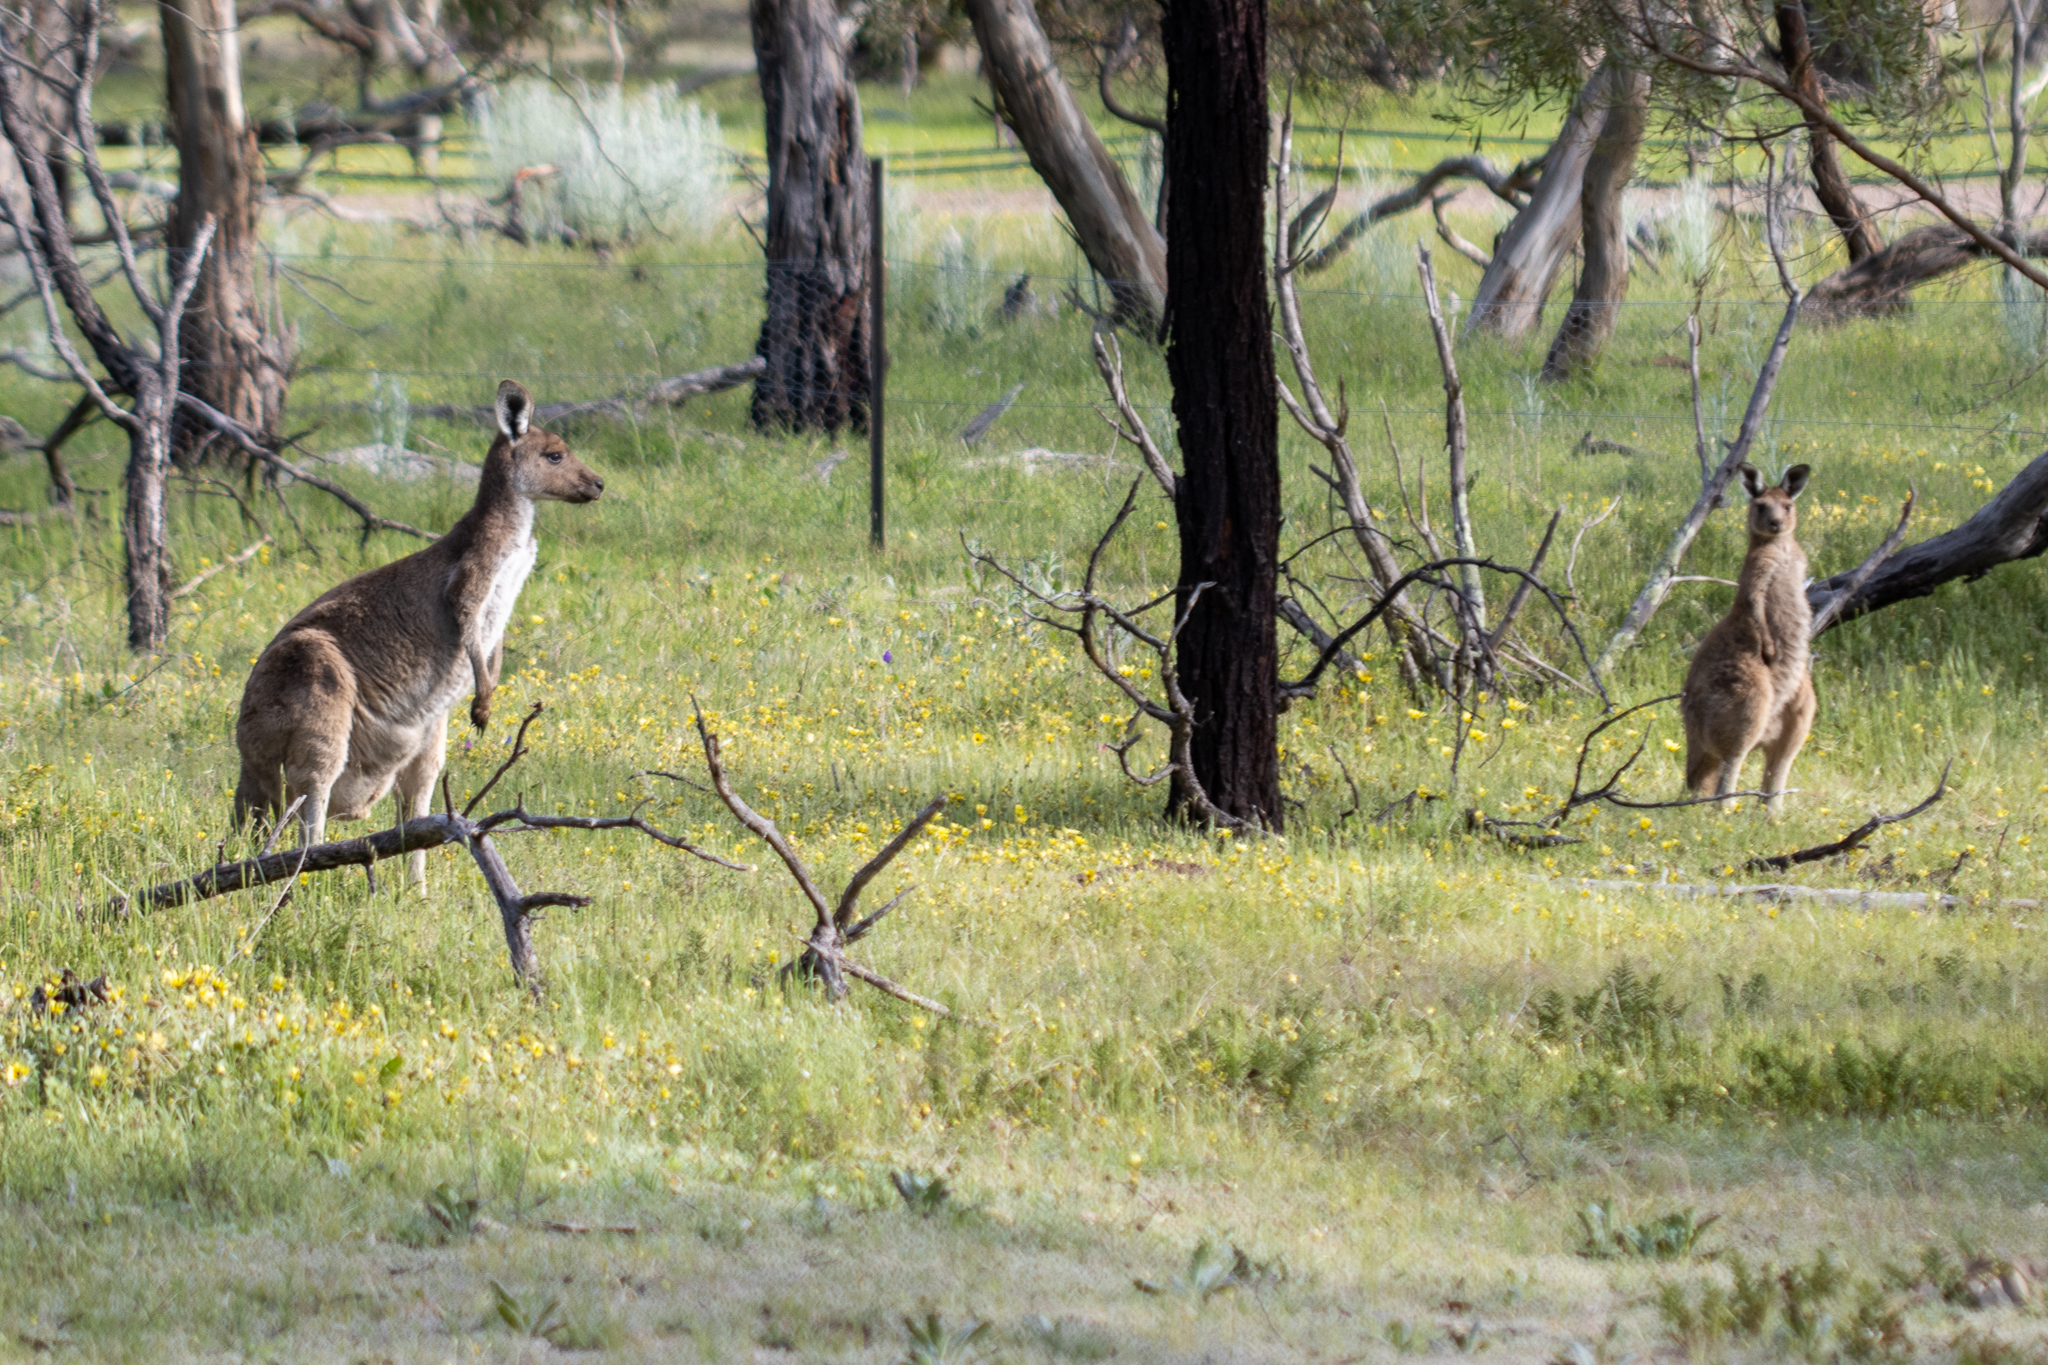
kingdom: Animalia
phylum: Chordata
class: Mammalia
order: Diprotodontia
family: Macropodidae
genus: Macropus
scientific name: Macropus fuliginosus
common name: Western grey kangaroo
